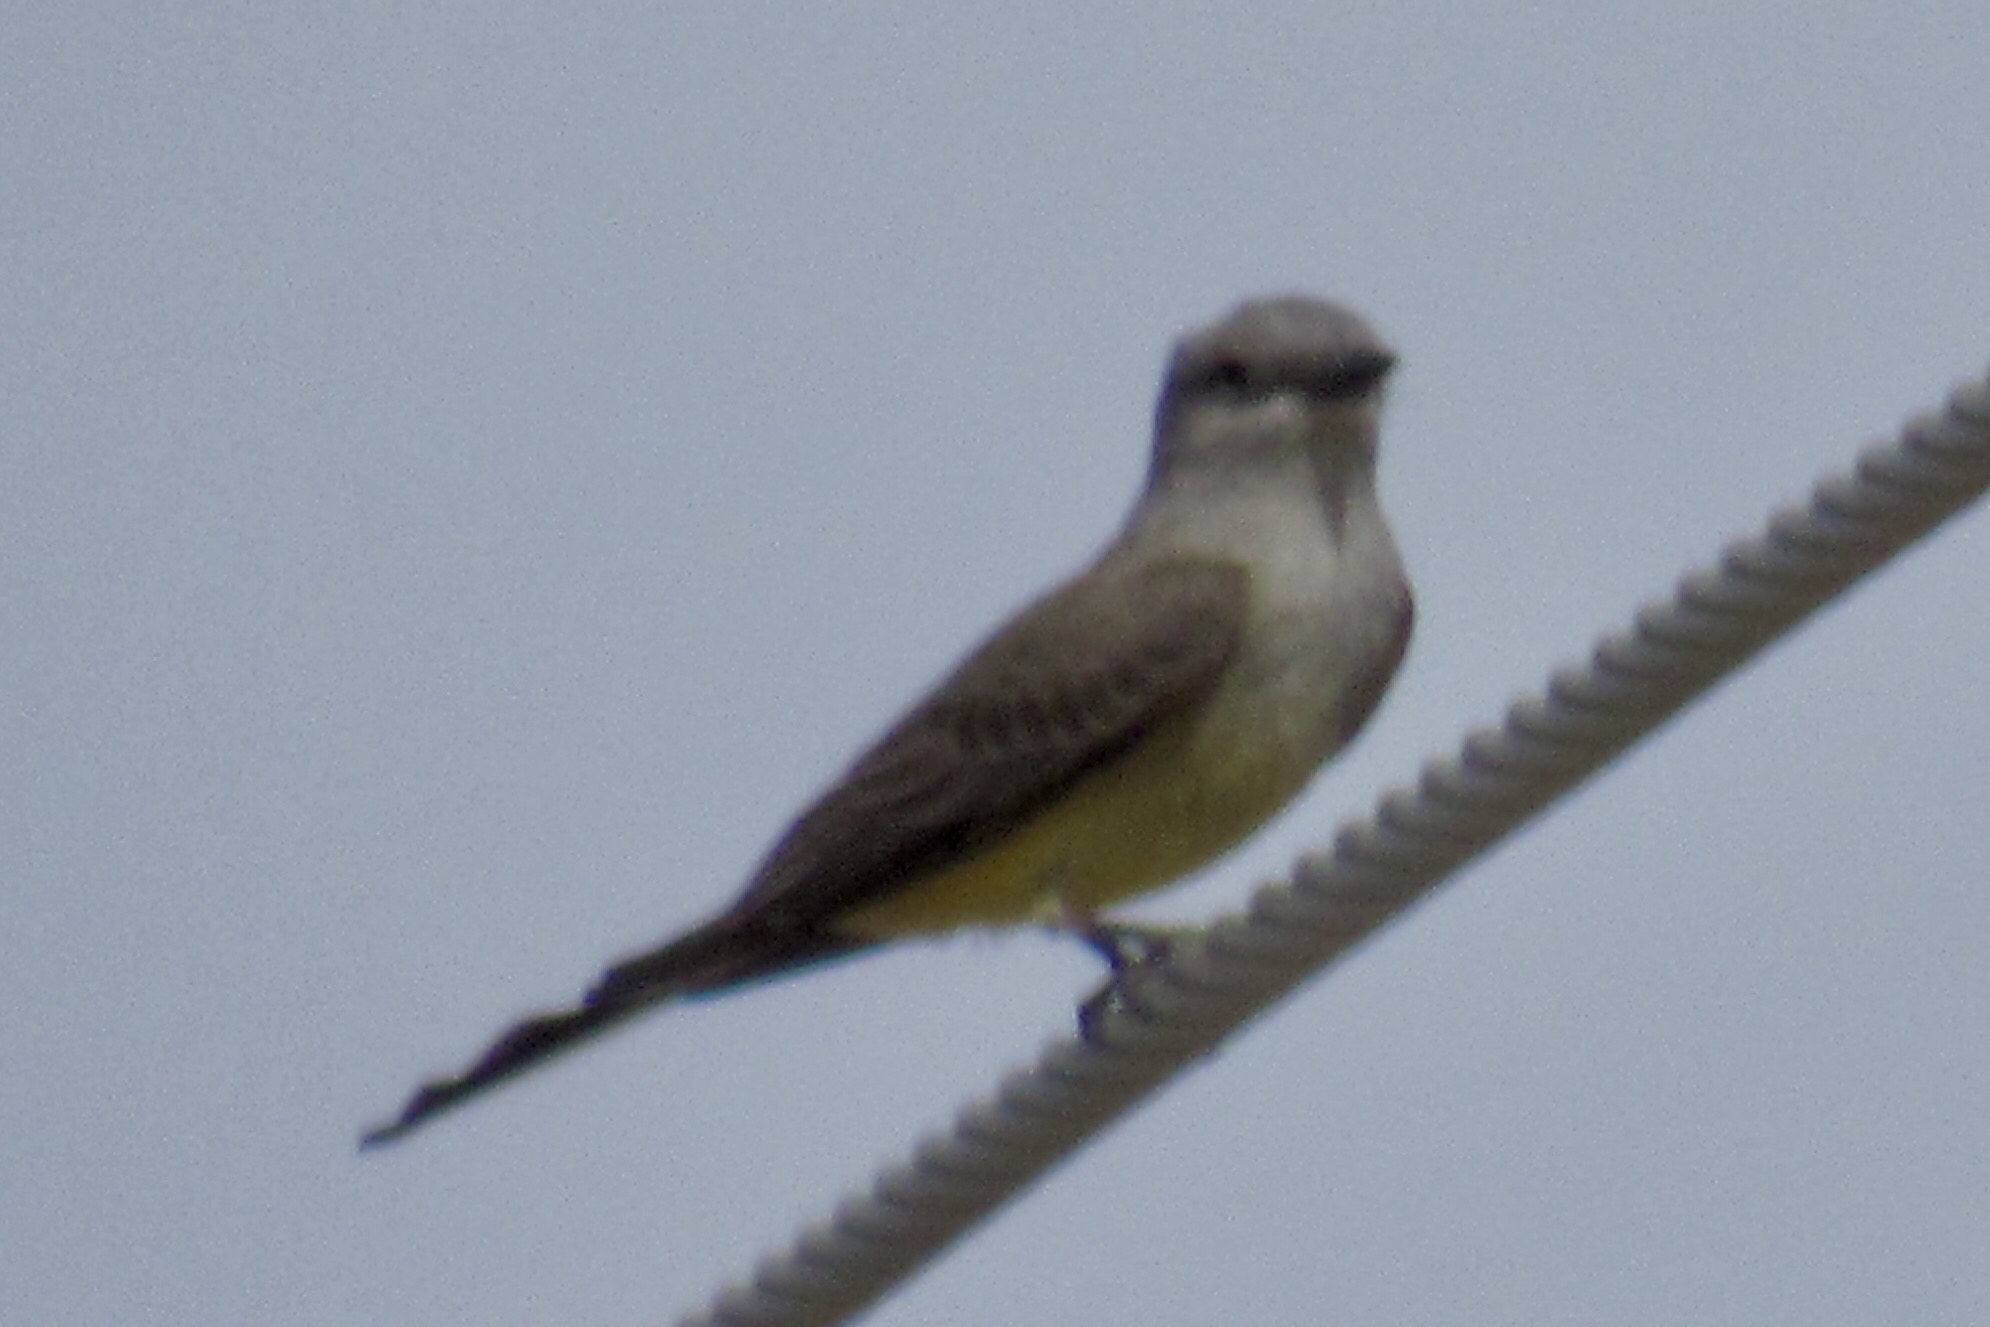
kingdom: Animalia
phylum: Chordata
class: Aves
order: Passeriformes
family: Tyrannidae
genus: Tyrannus
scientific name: Tyrannus verticalis
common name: Western kingbird
